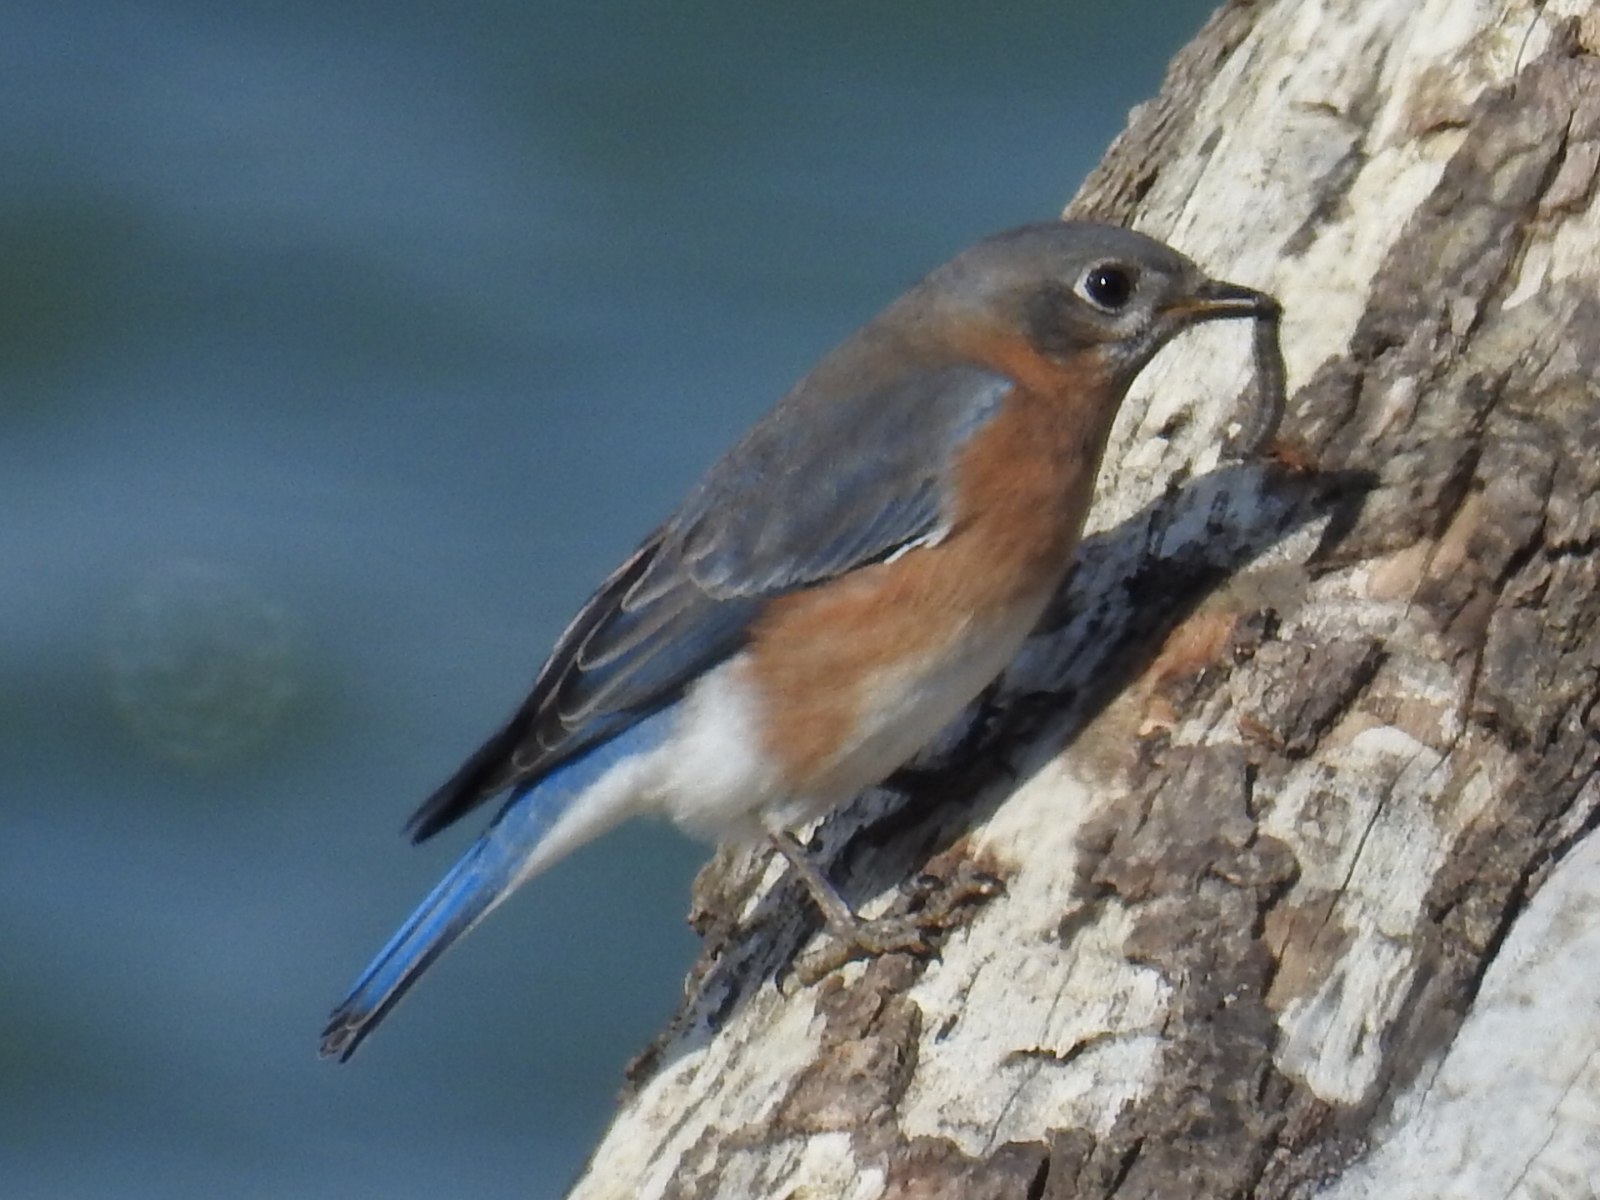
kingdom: Animalia
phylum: Chordata
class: Aves
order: Passeriformes
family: Turdidae
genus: Sialia
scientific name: Sialia sialis
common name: Eastern bluebird
